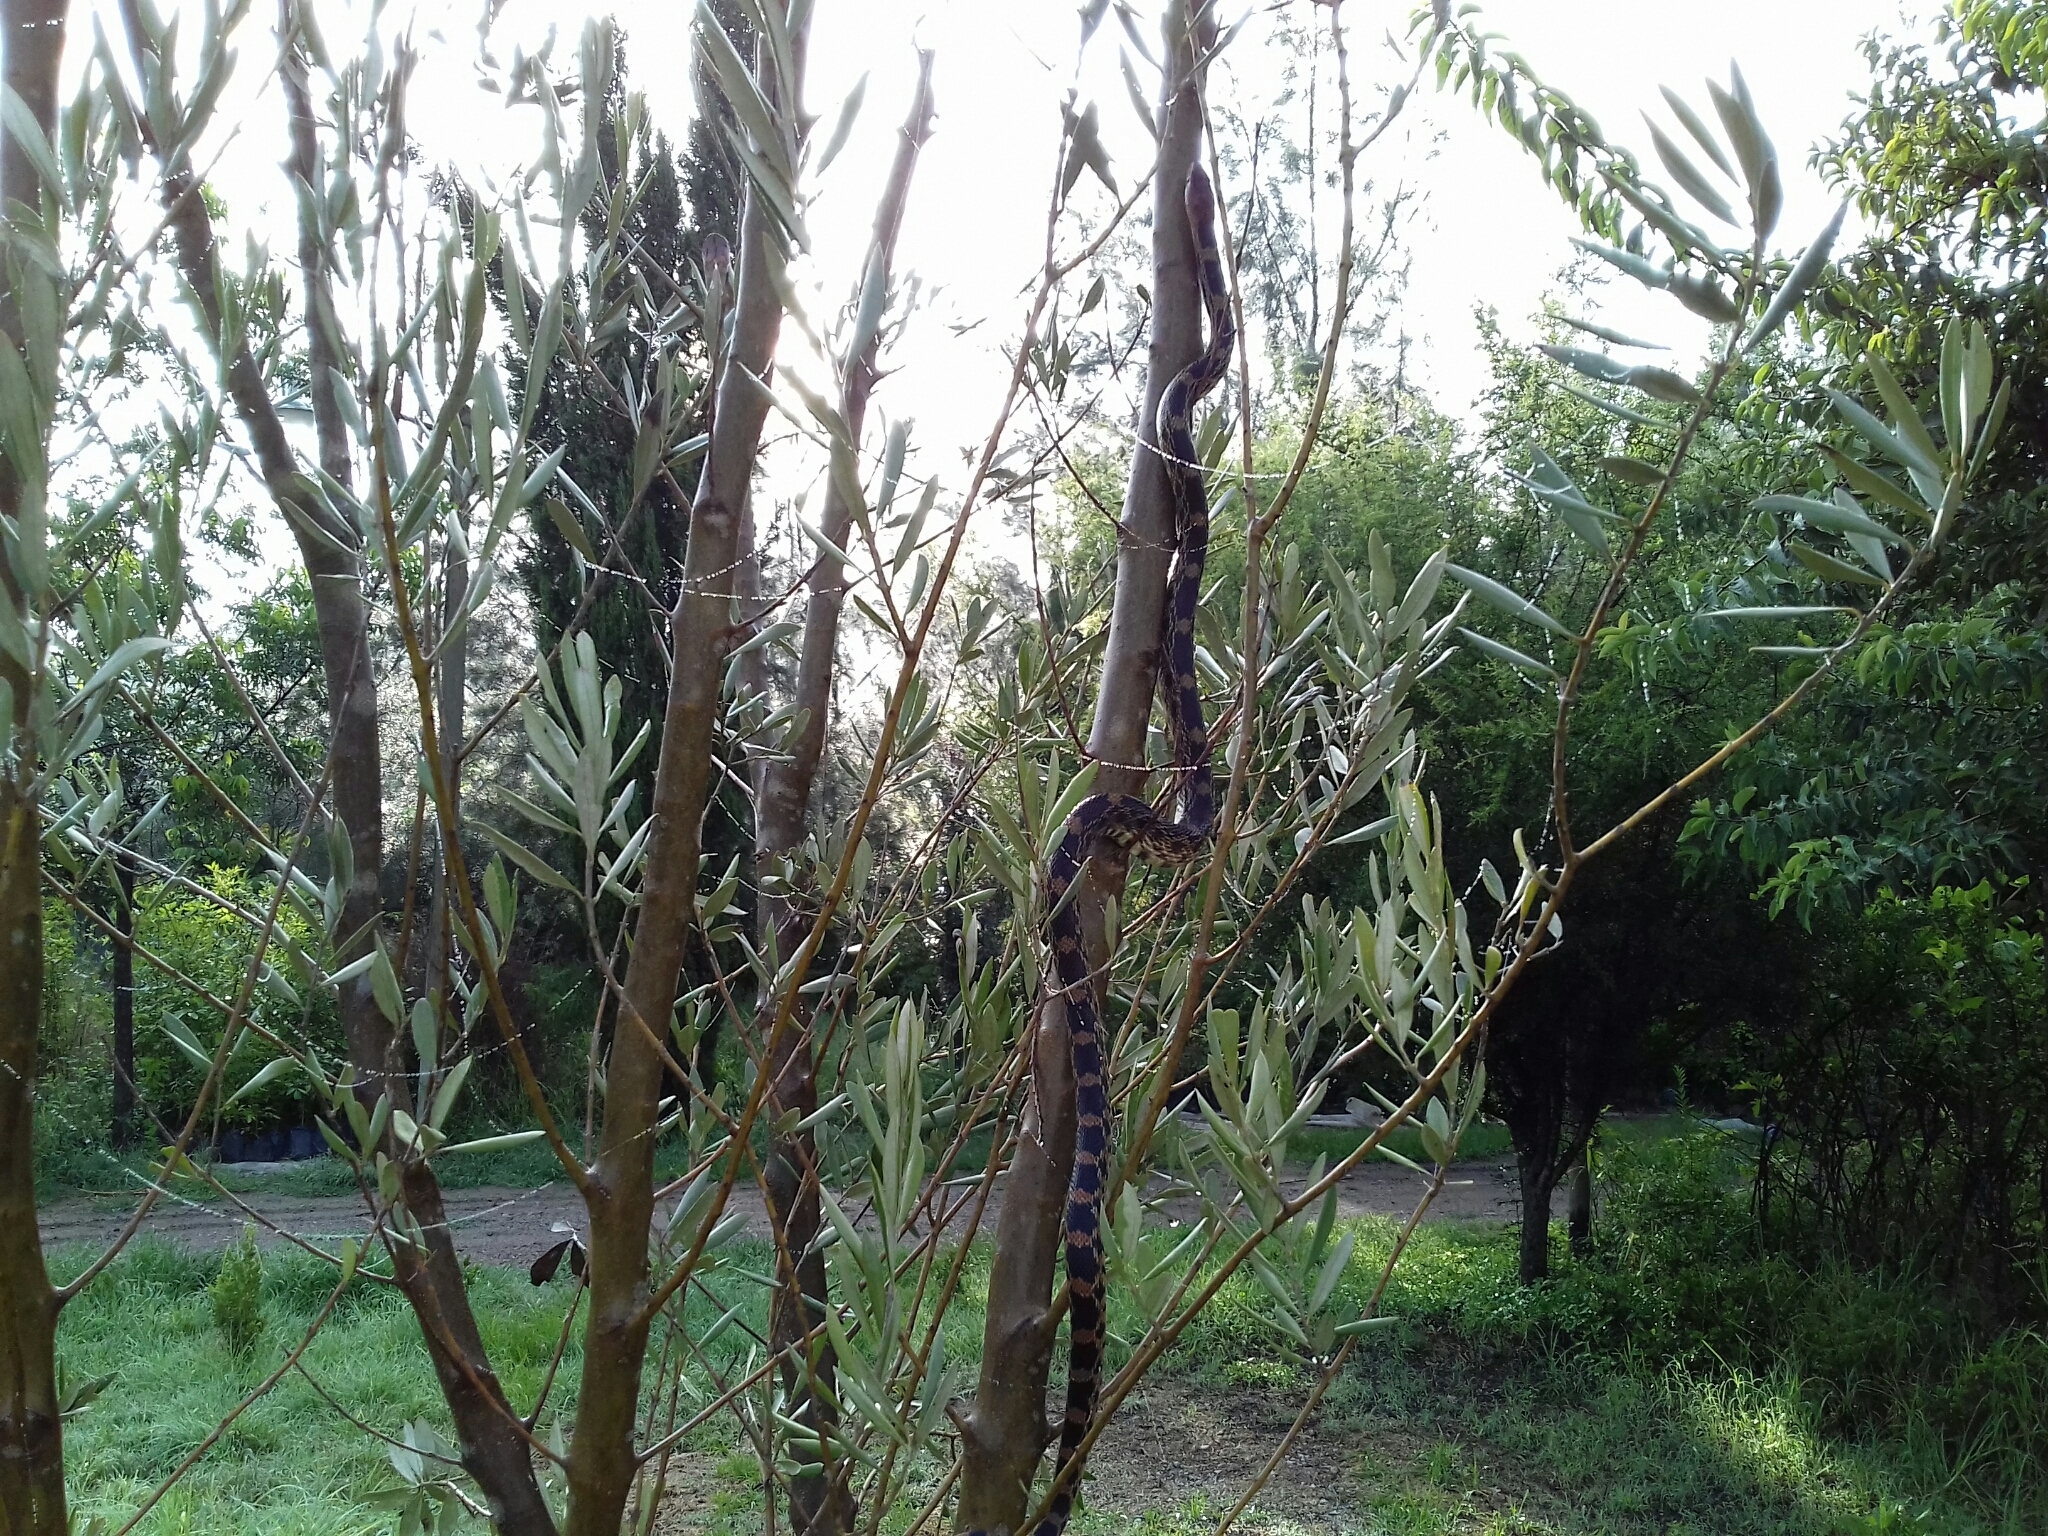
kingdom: Animalia
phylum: Chordata
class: Squamata
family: Colubridae
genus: Pituophis
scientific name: Pituophis deppei
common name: Mexican bull snake
